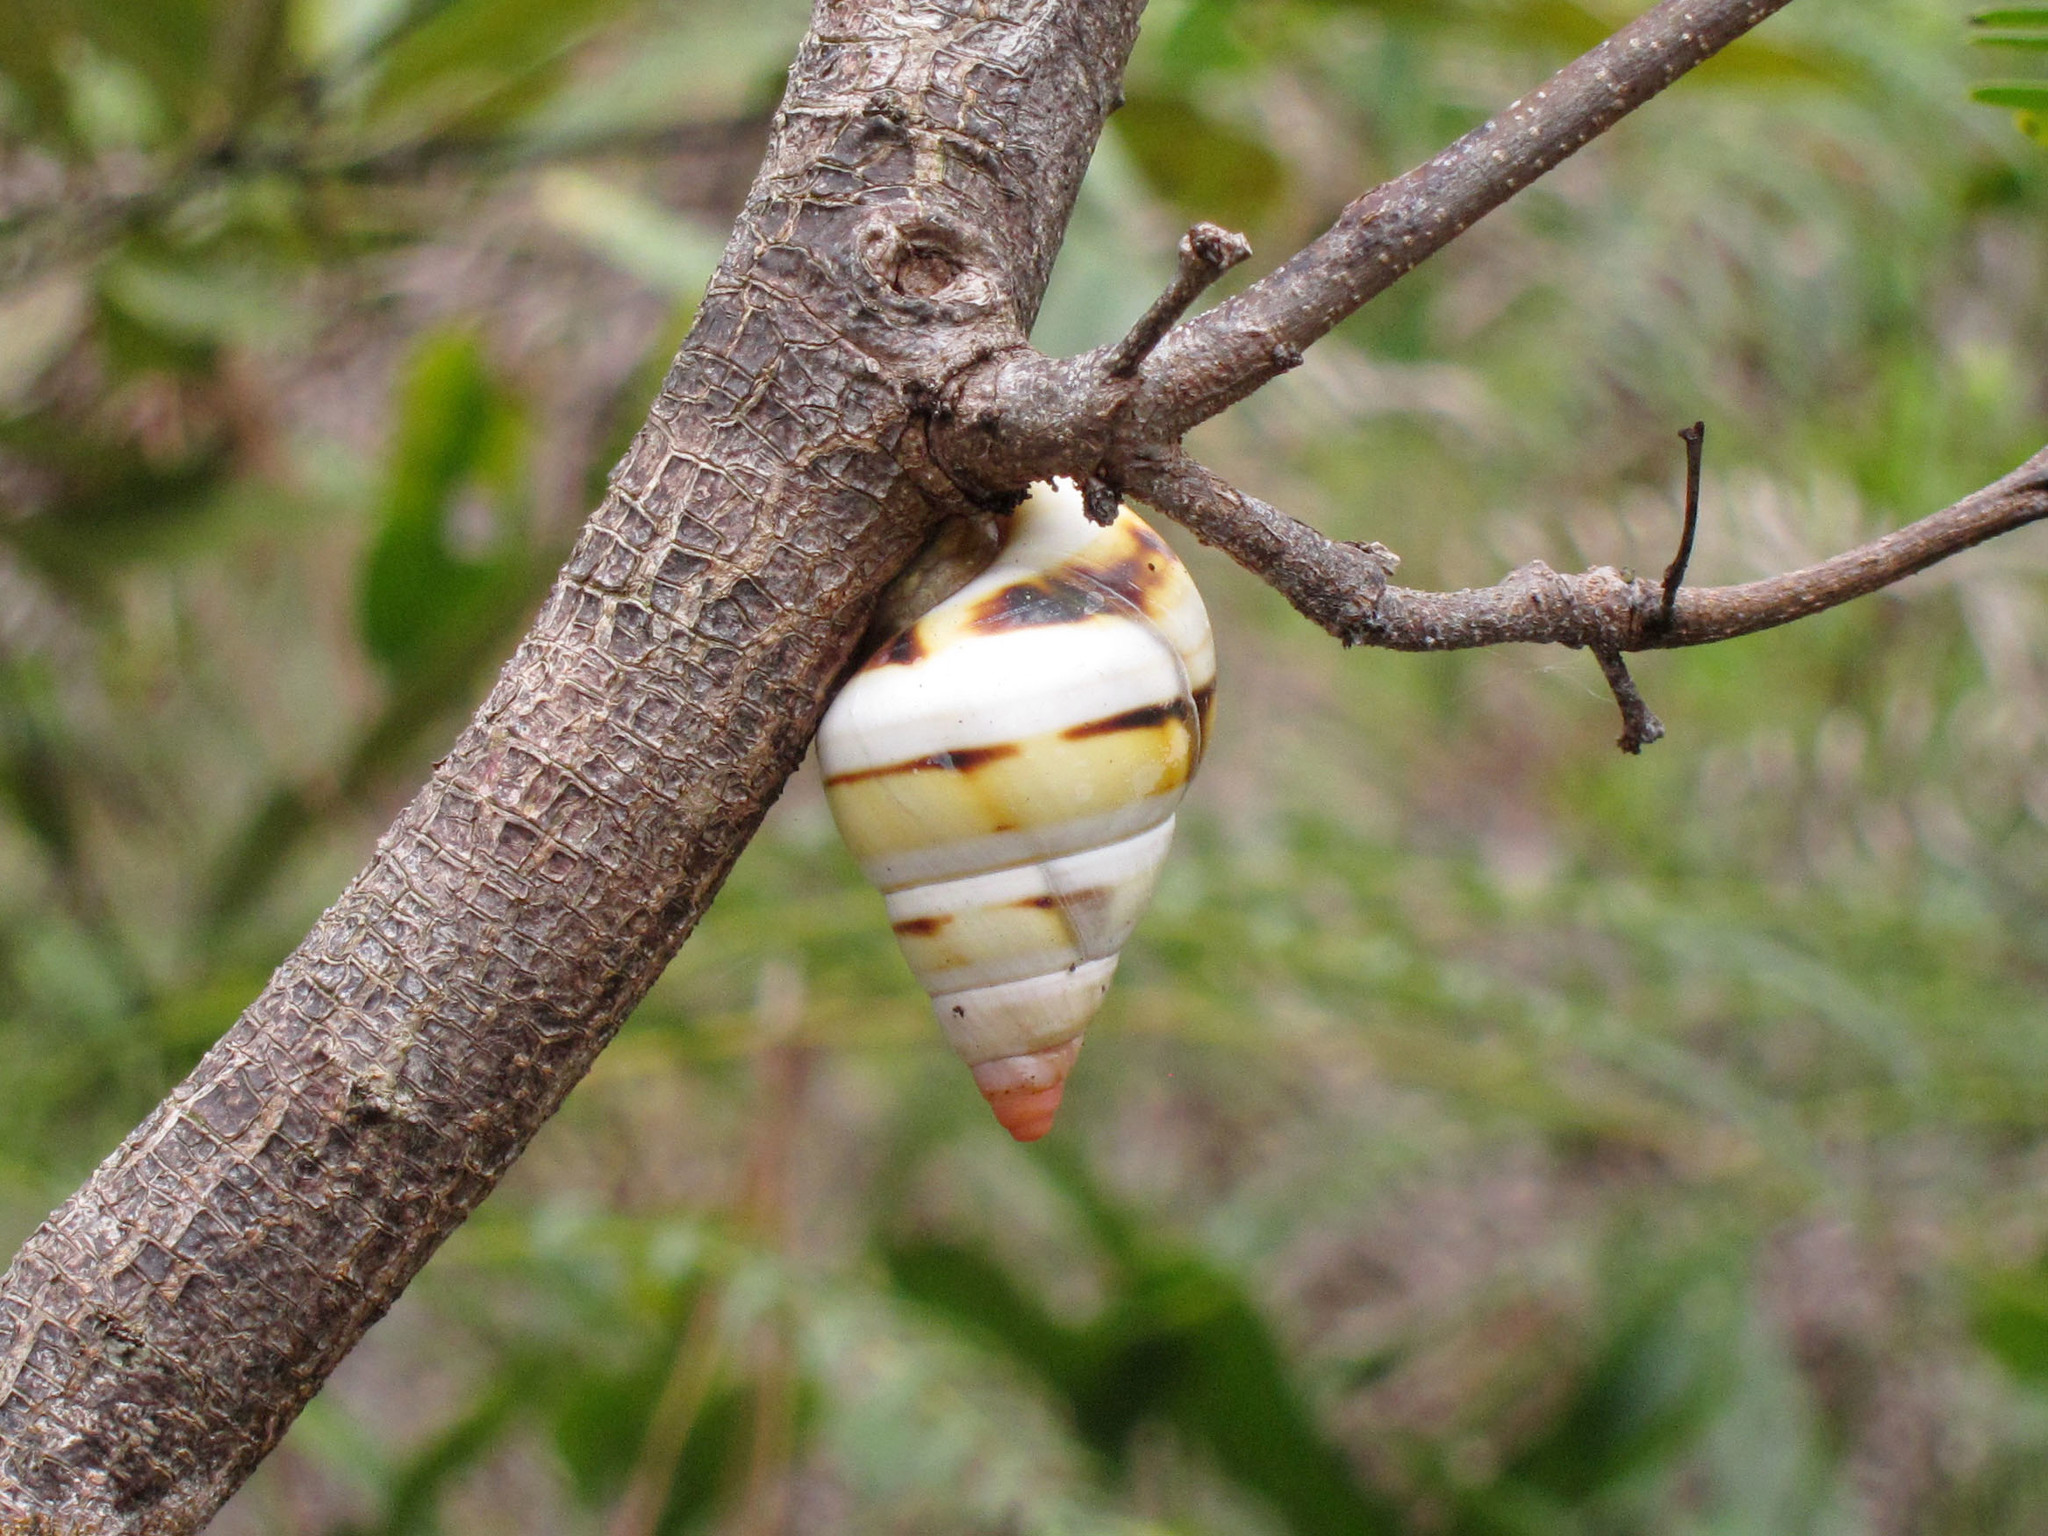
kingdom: Animalia
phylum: Mollusca
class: Gastropoda
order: Stylommatophora
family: Orthalicidae
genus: Liguus
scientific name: Liguus fasciatus
